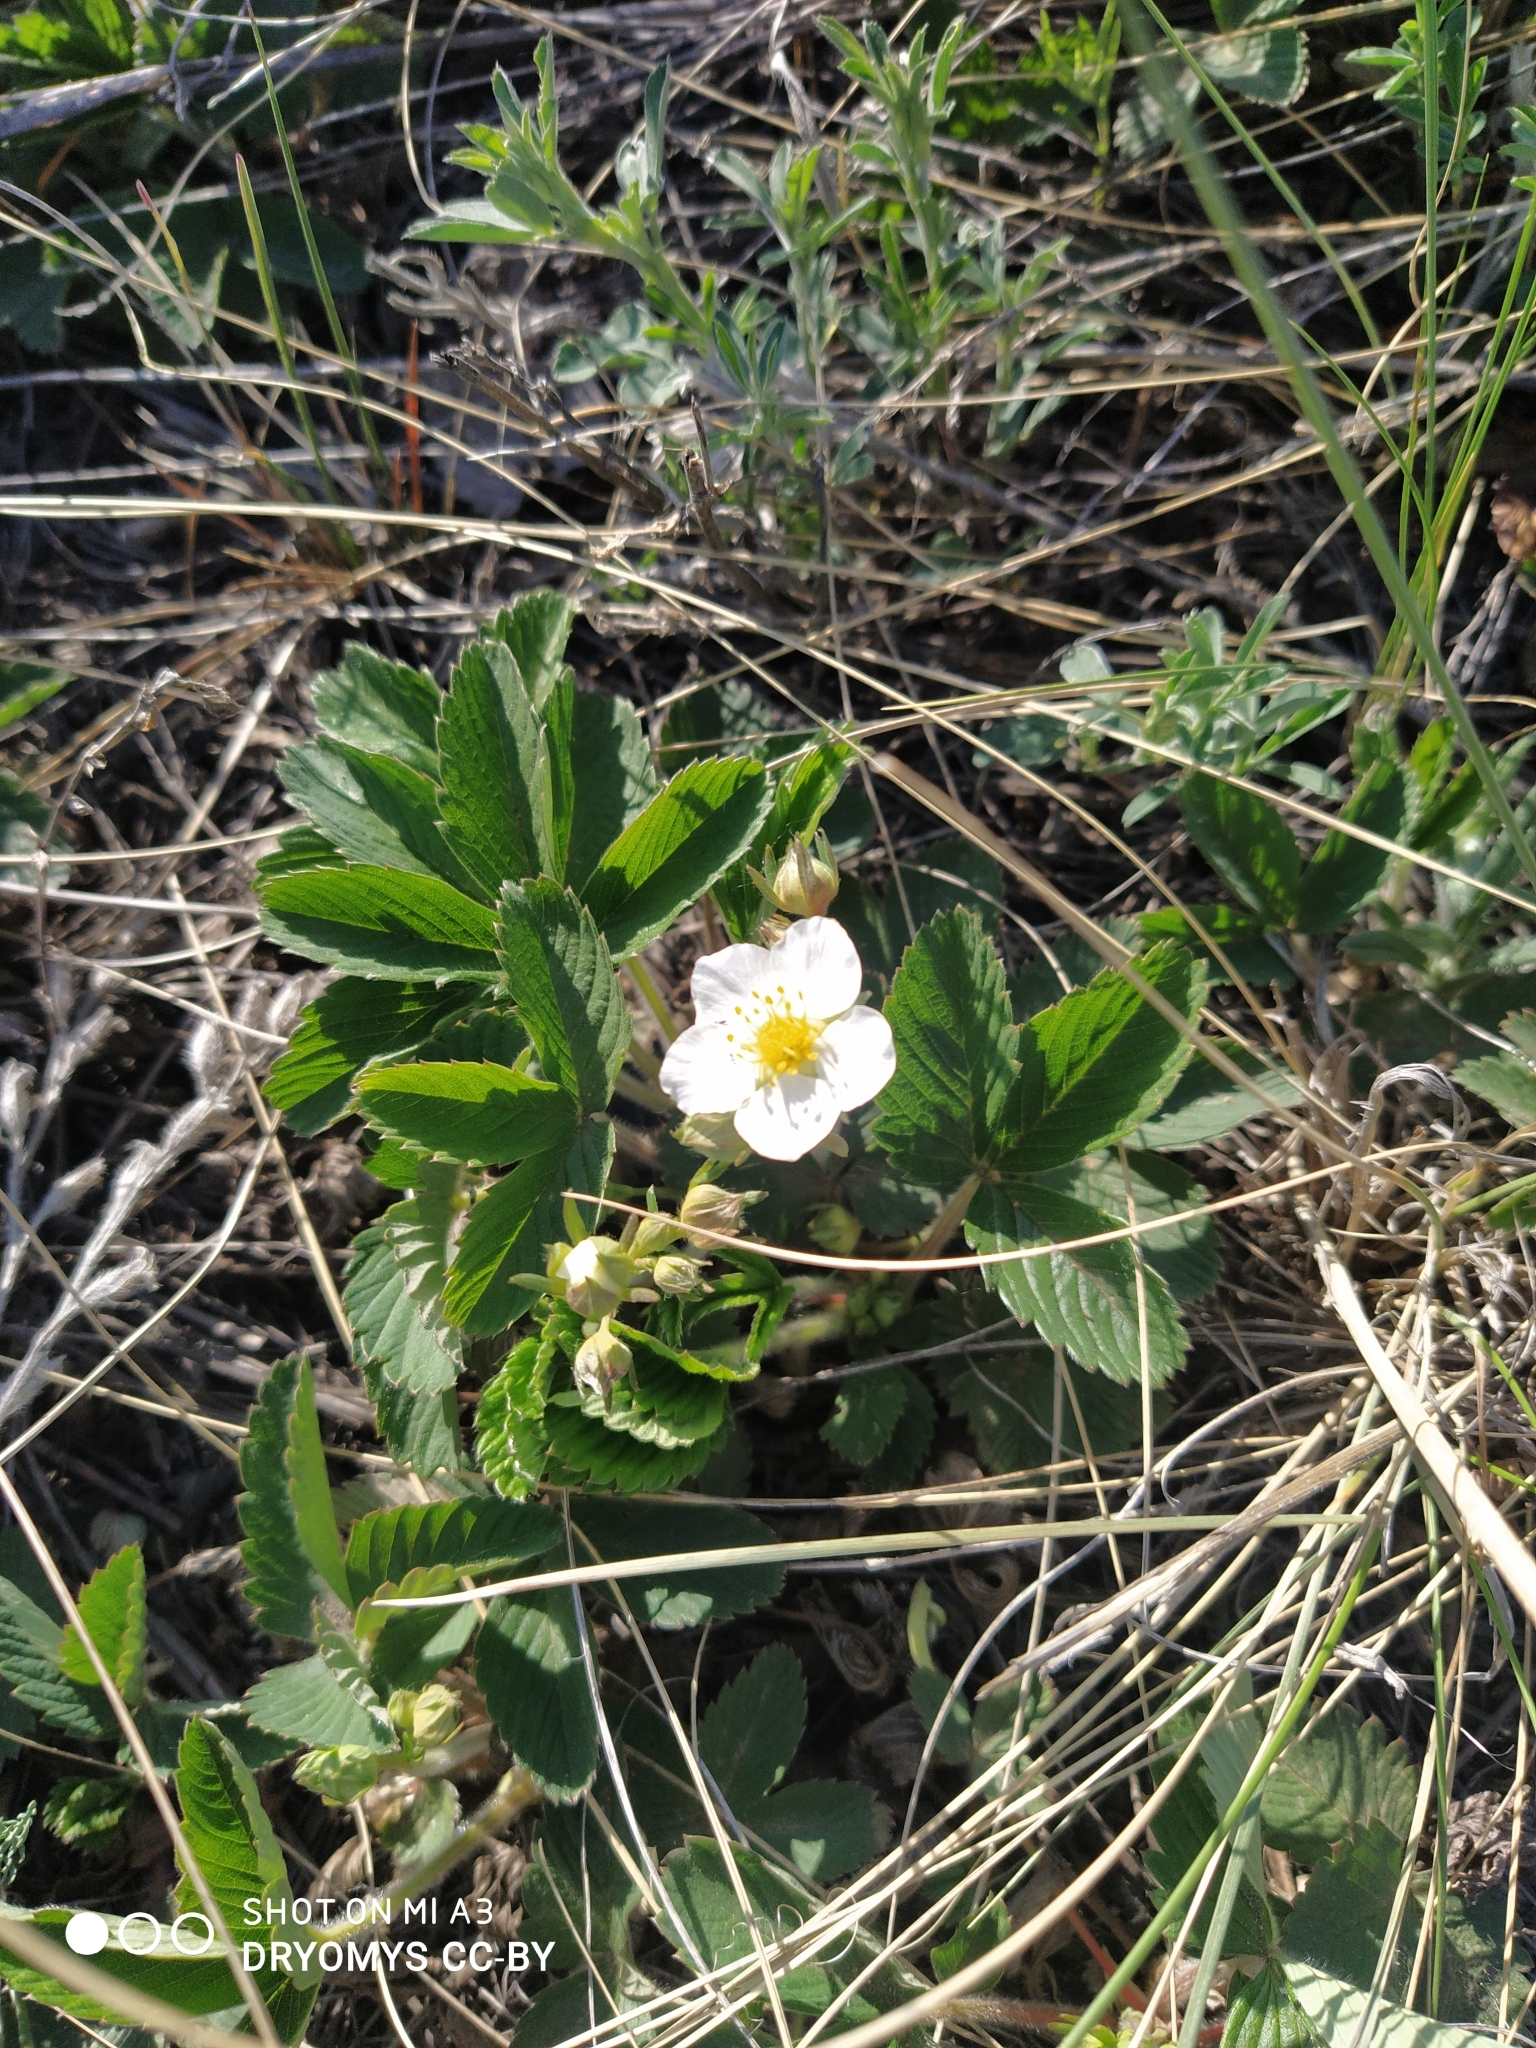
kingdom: Plantae
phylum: Tracheophyta
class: Magnoliopsida
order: Rosales
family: Rosaceae
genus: Fragaria
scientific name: Fragaria viridis
